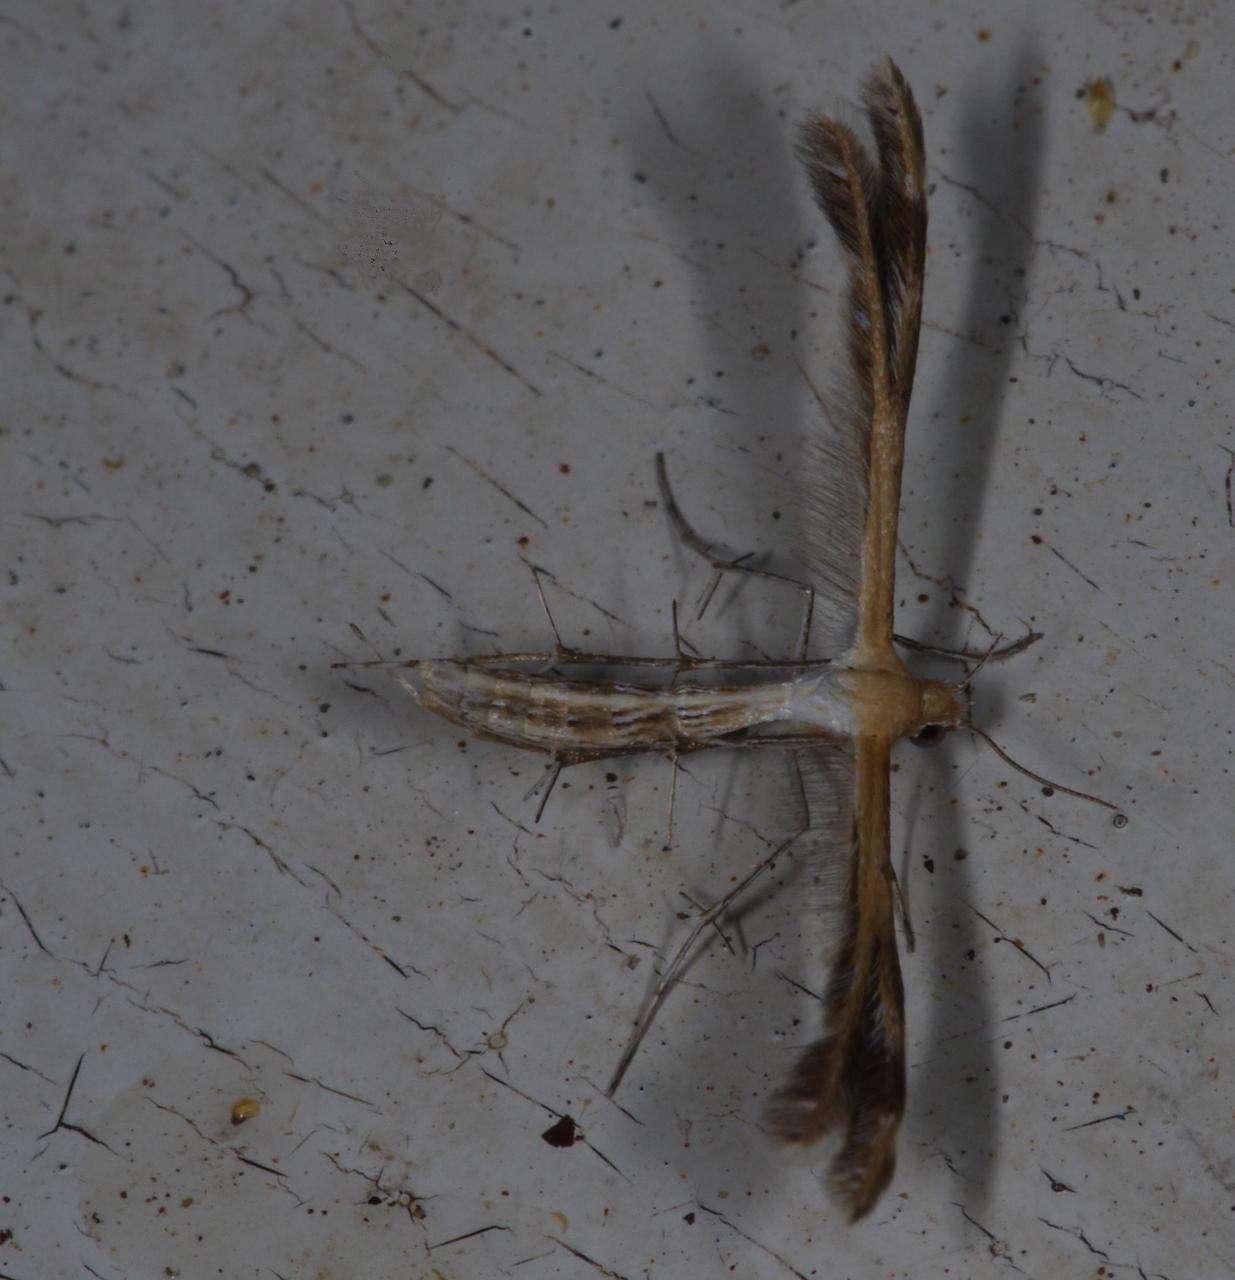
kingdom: Animalia
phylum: Arthropoda
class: Insecta
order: Lepidoptera
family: Pterophoridae
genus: Stangeia
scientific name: Stangeia xerodes
